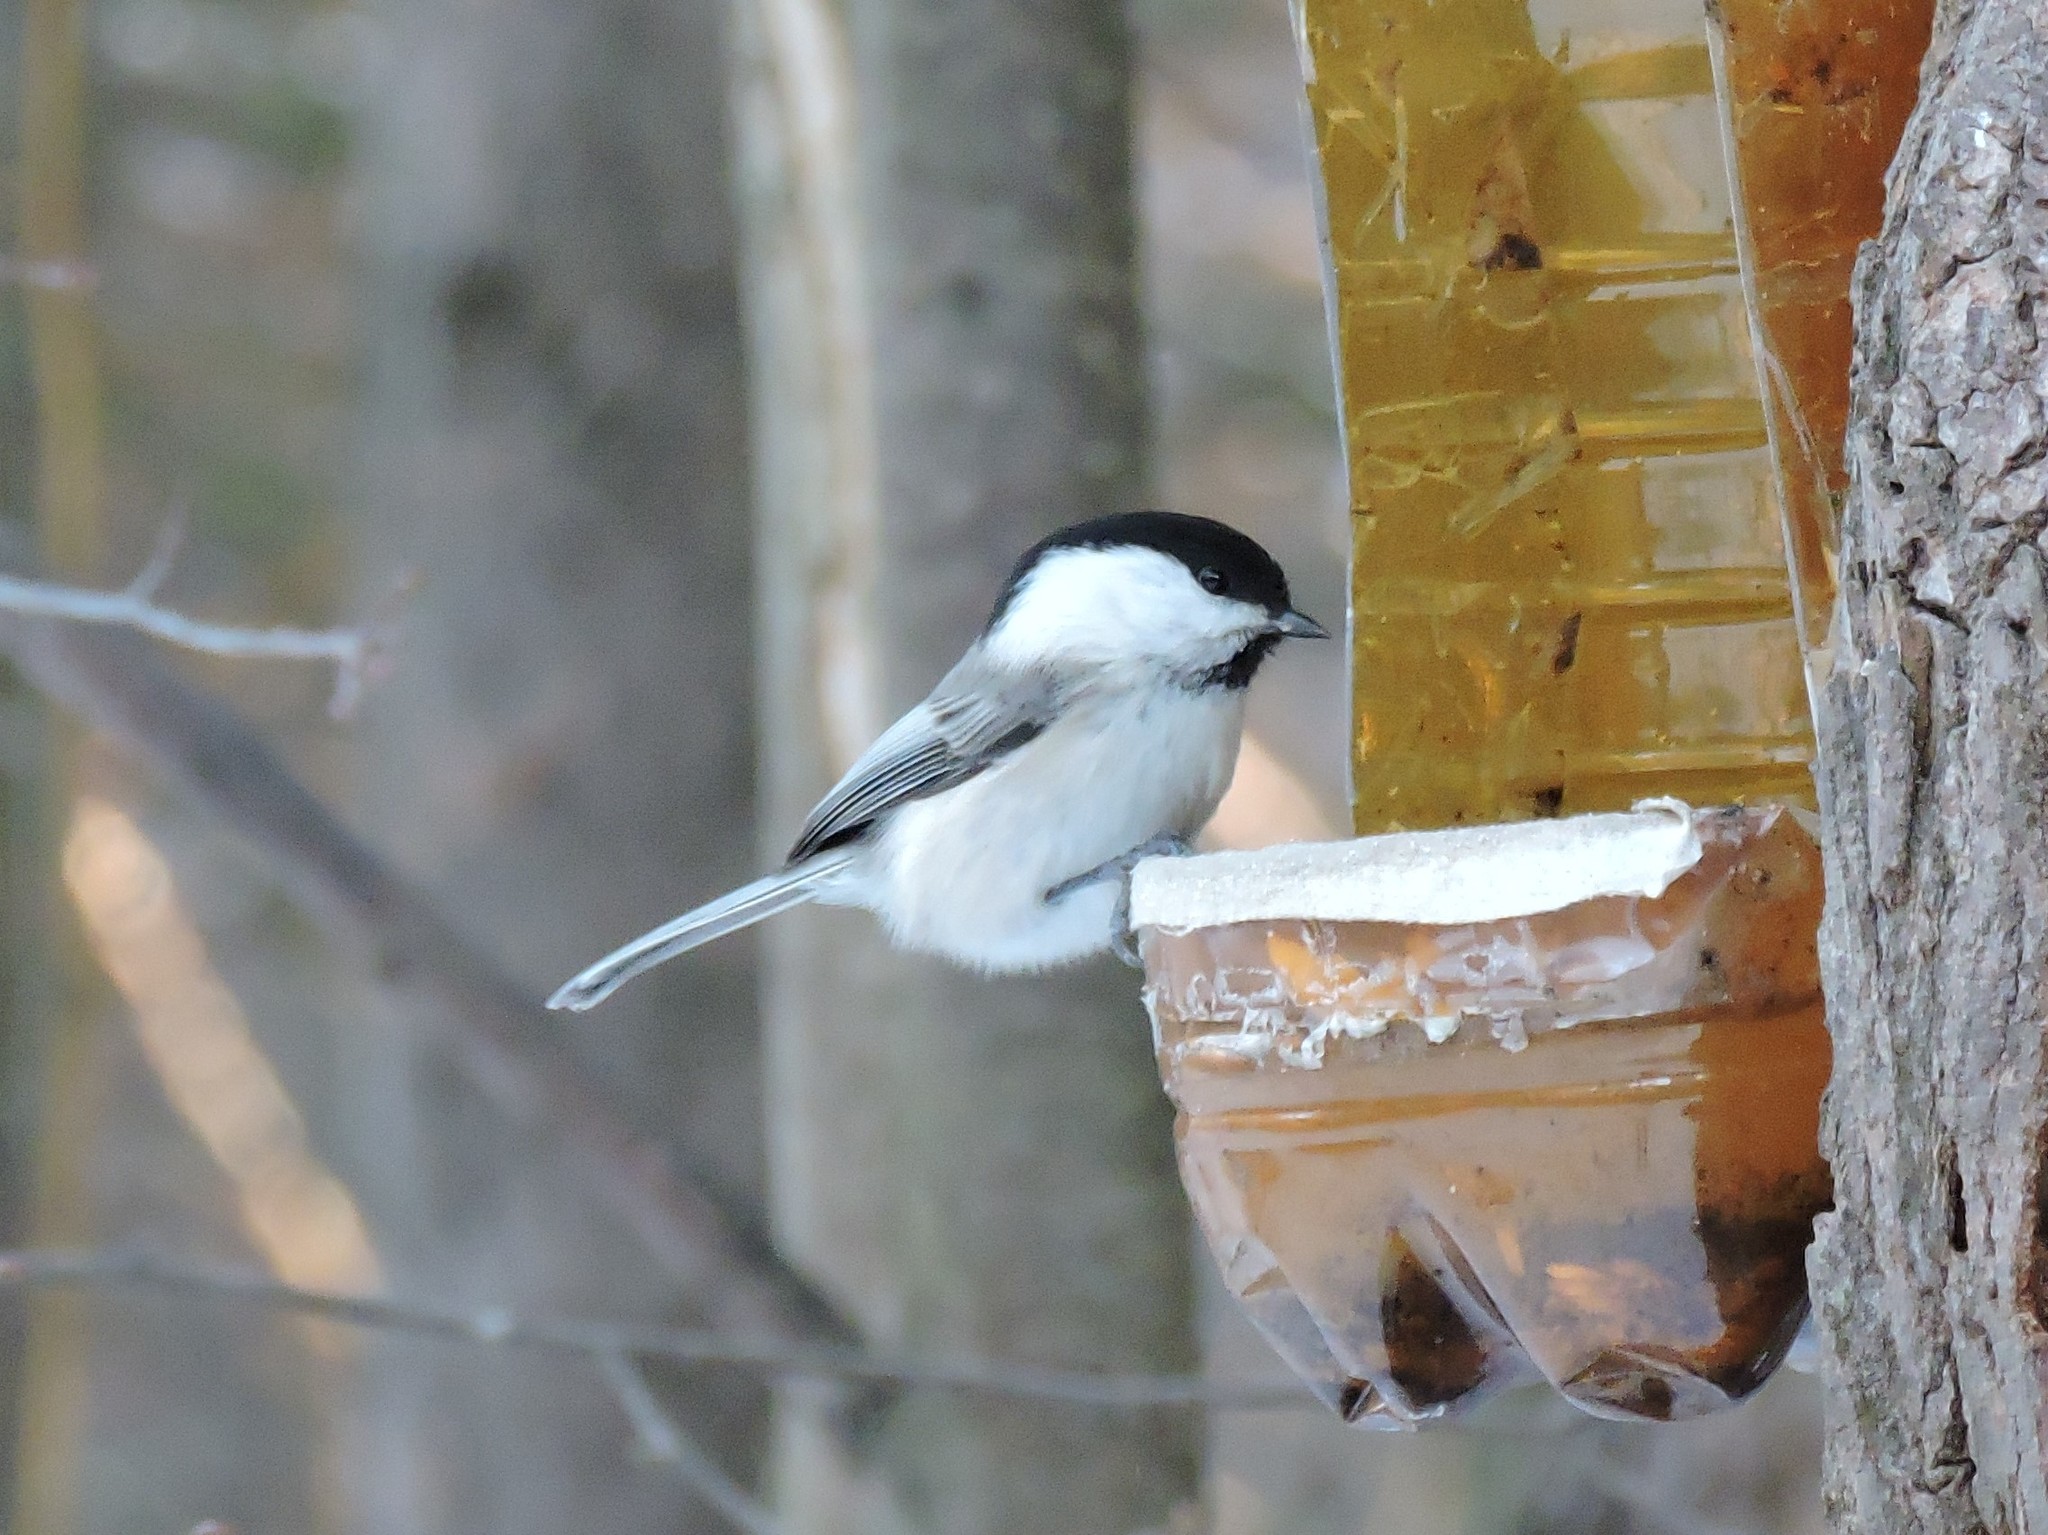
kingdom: Animalia
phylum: Chordata
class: Aves
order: Passeriformes
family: Paridae
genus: Poecile
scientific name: Poecile montanus
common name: Willow tit
